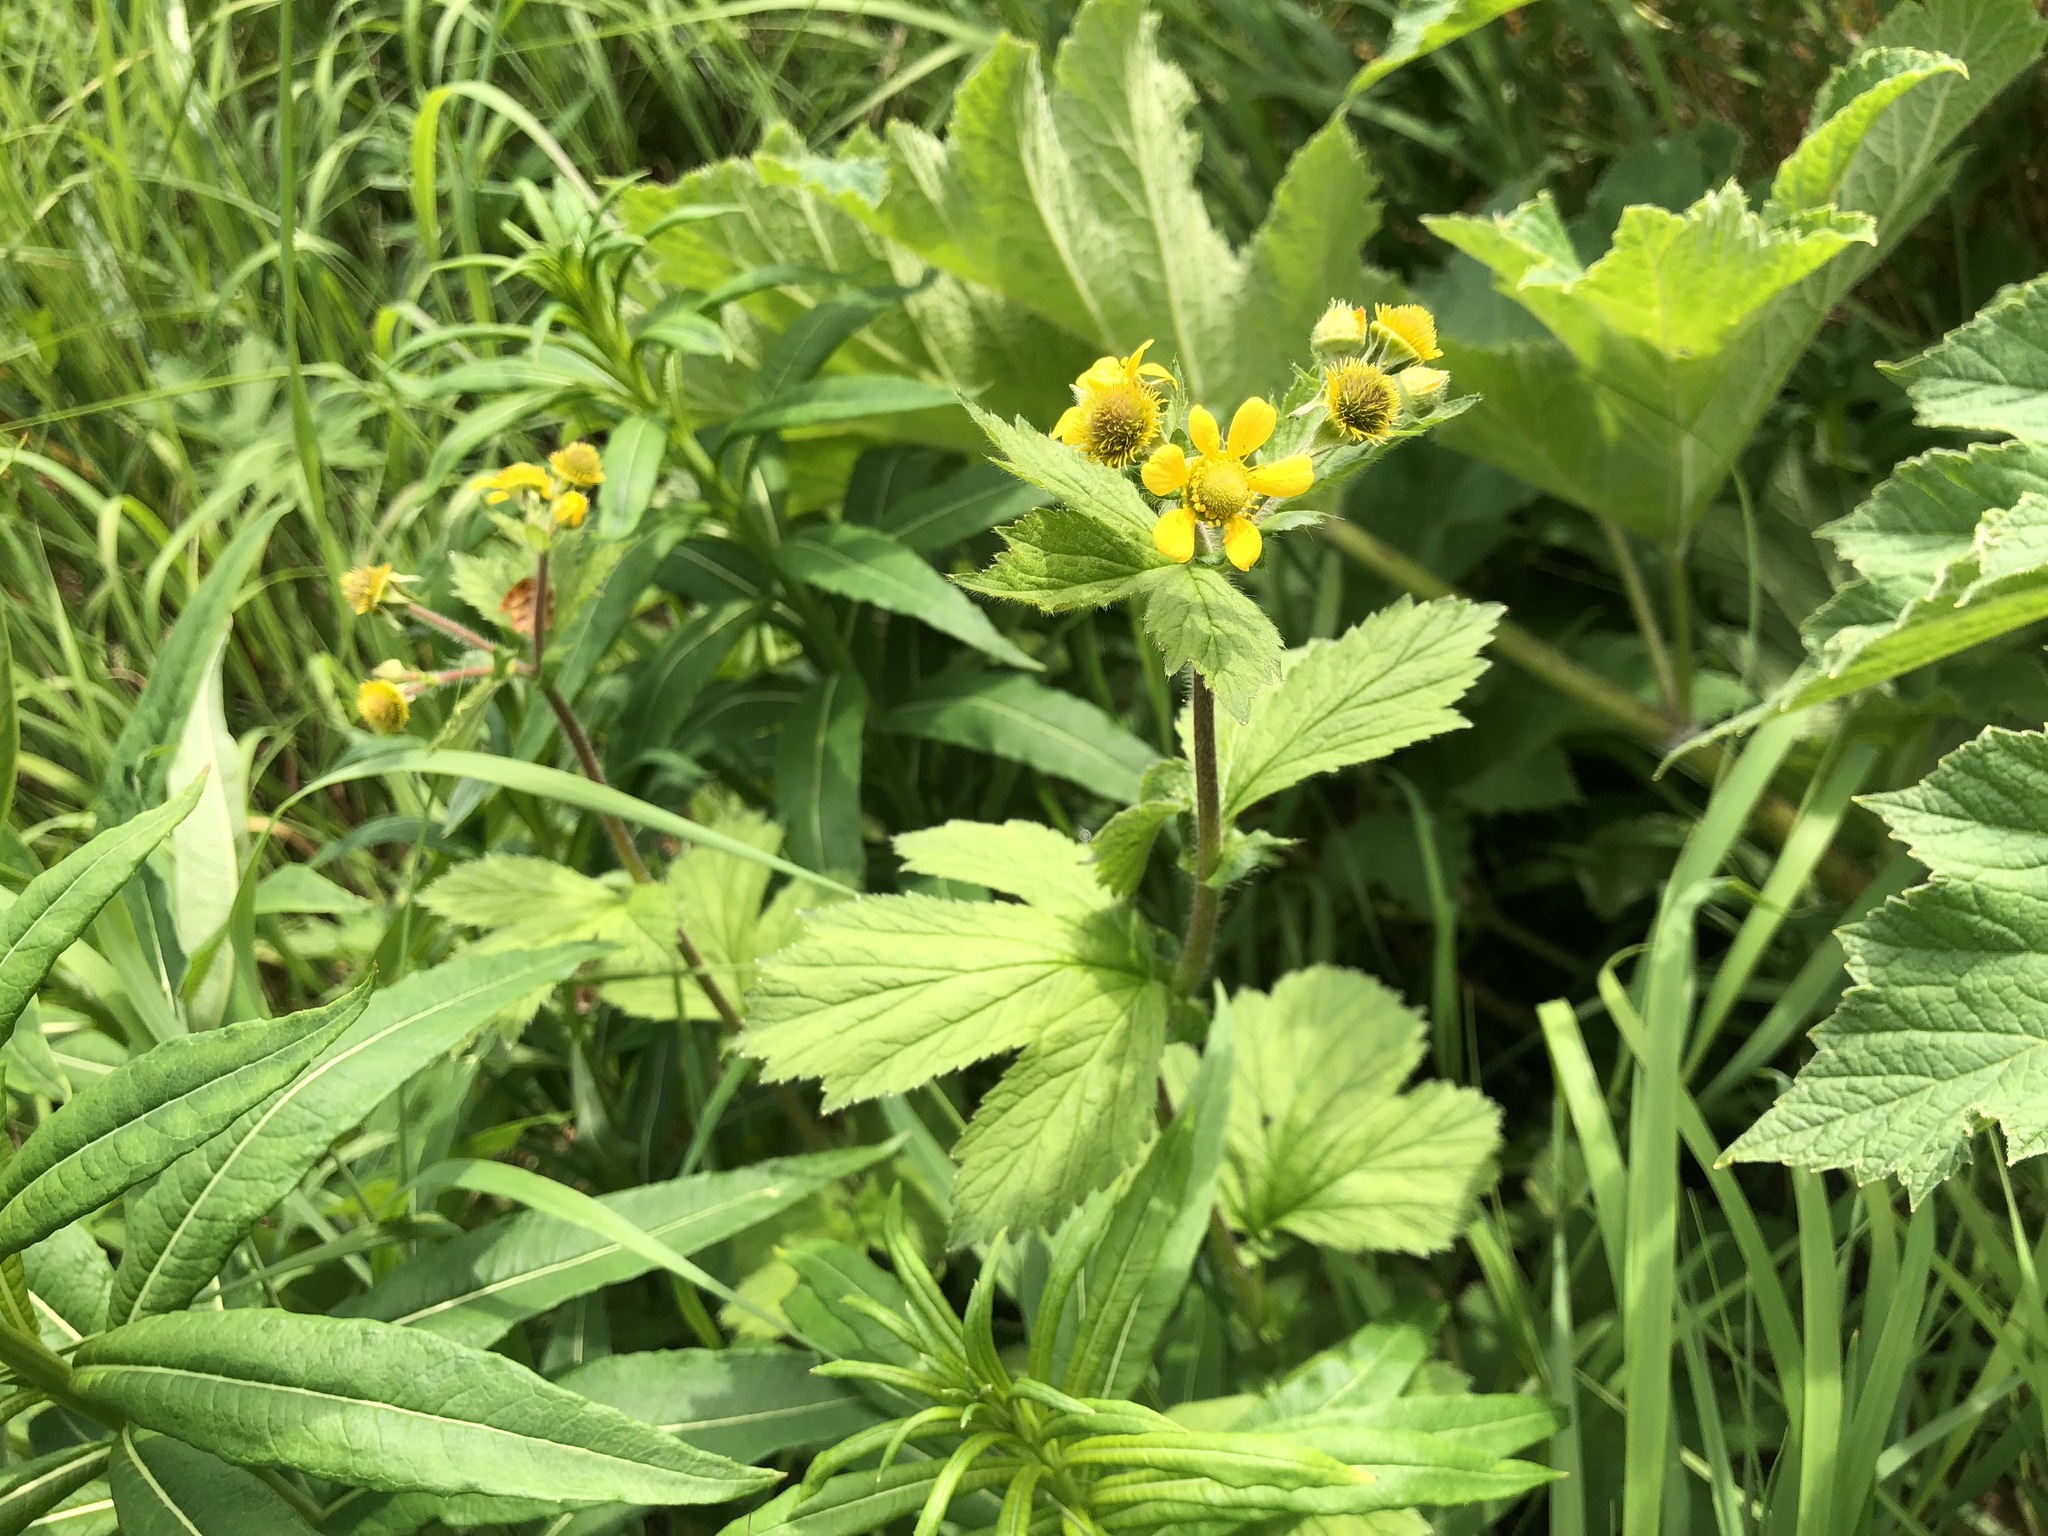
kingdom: Plantae
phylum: Tracheophyta
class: Magnoliopsida
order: Rosales
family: Rosaceae
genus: Geum
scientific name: Geum macrophyllum
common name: Large-leaved avens
